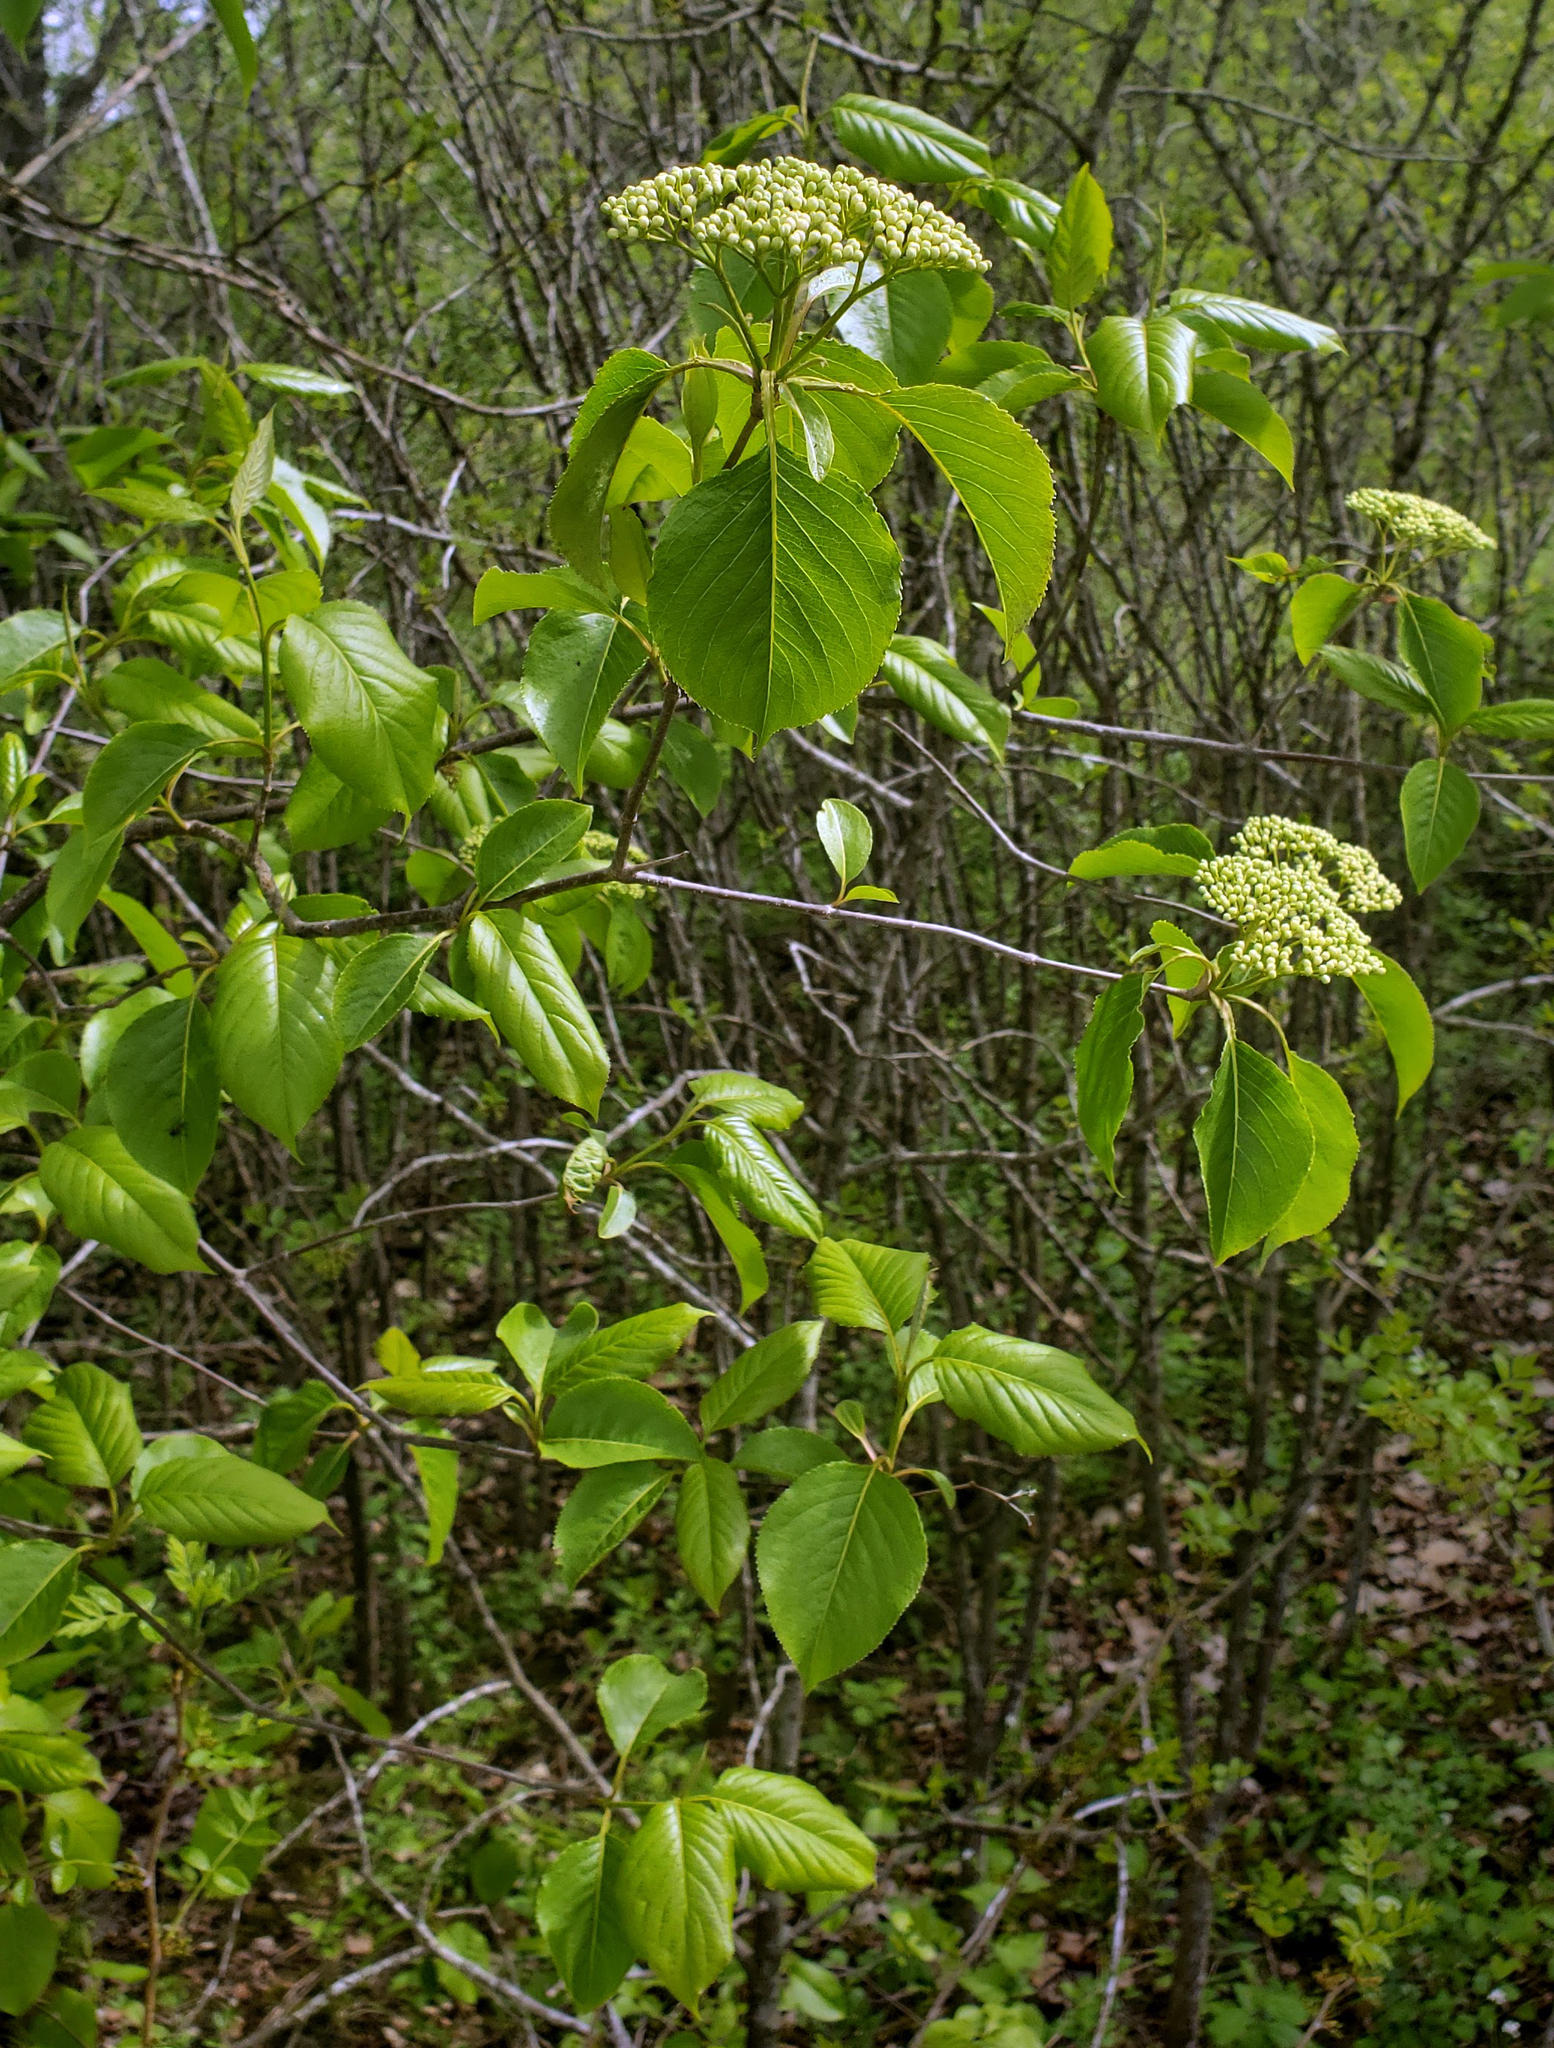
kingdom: Plantae
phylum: Tracheophyta
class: Magnoliopsida
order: Dipsacales
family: Viburnaceae
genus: Viburnum
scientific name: Viburnum lentago
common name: Black haw
